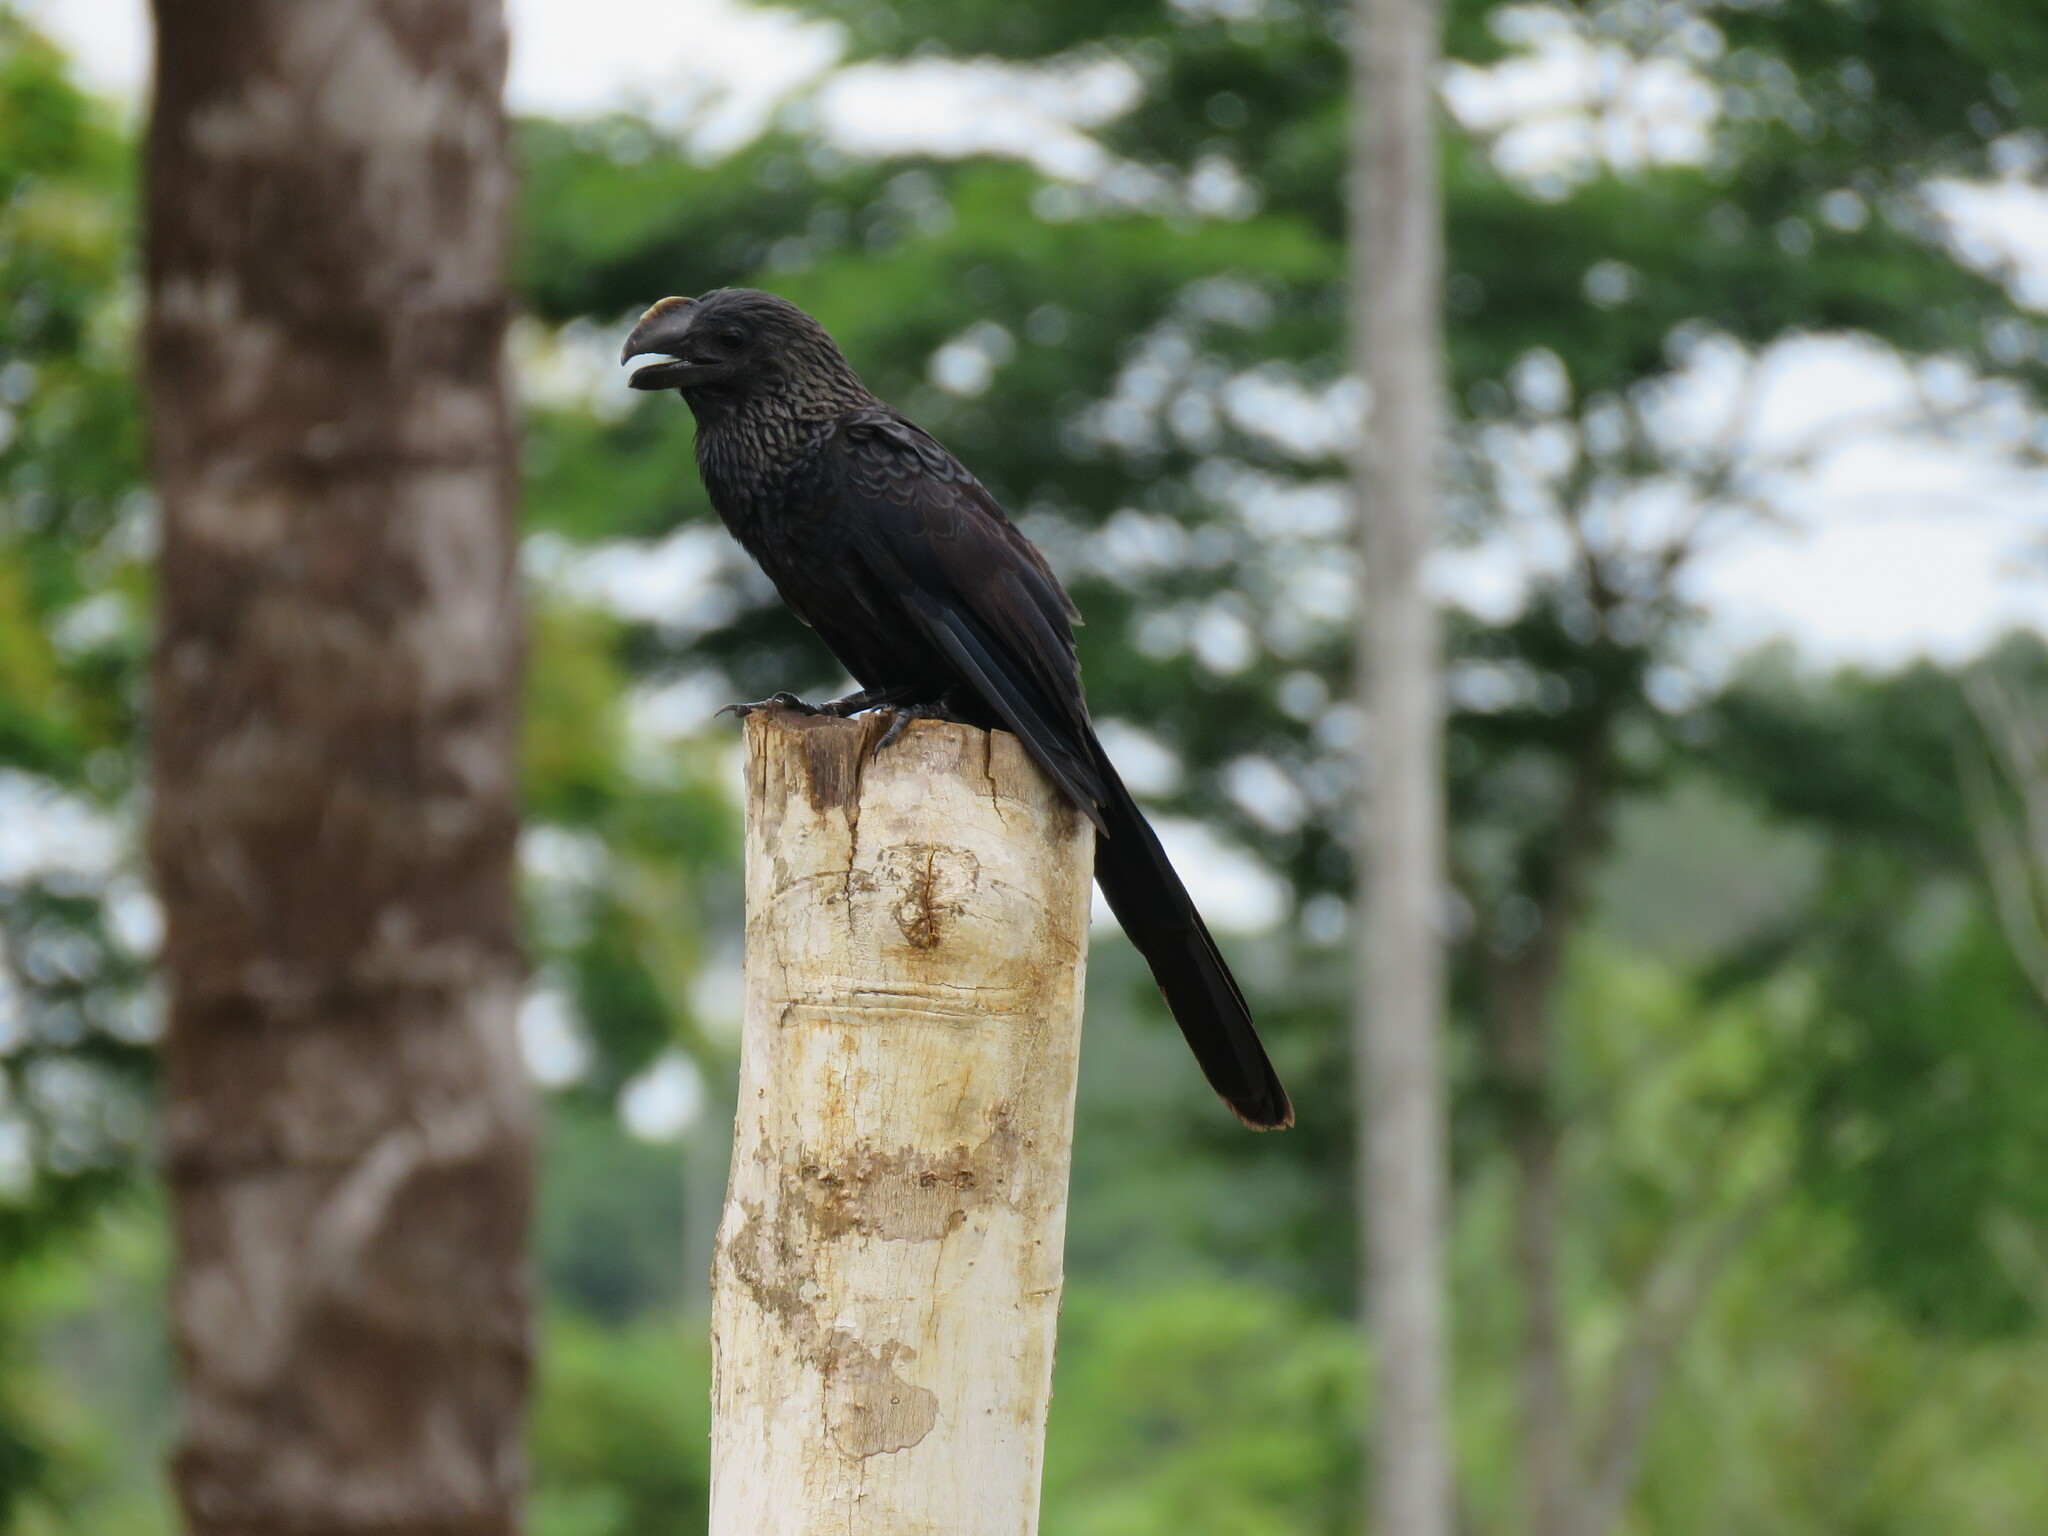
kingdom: Animalia
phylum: Chordata
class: Aves
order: Cuculiformes
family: Cuculidae
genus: Crotophaga
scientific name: Crotophaga ani
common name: Smooth-billed ani
